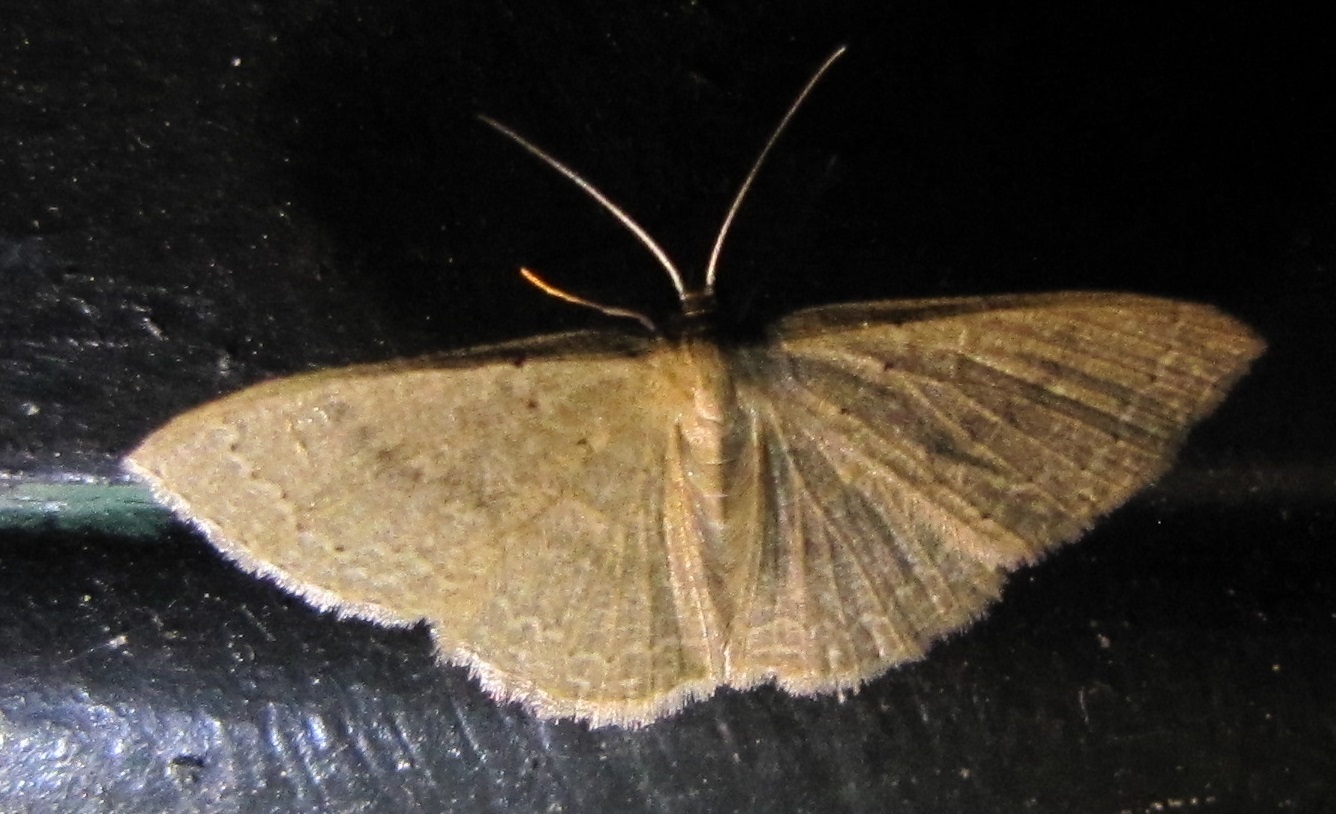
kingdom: Animalia
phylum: Arthropoda
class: Insecta
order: Lepidoptera
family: Geometridae
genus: Pleuroprucha
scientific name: Pleuroprucha insulsaria
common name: Common tan wave
